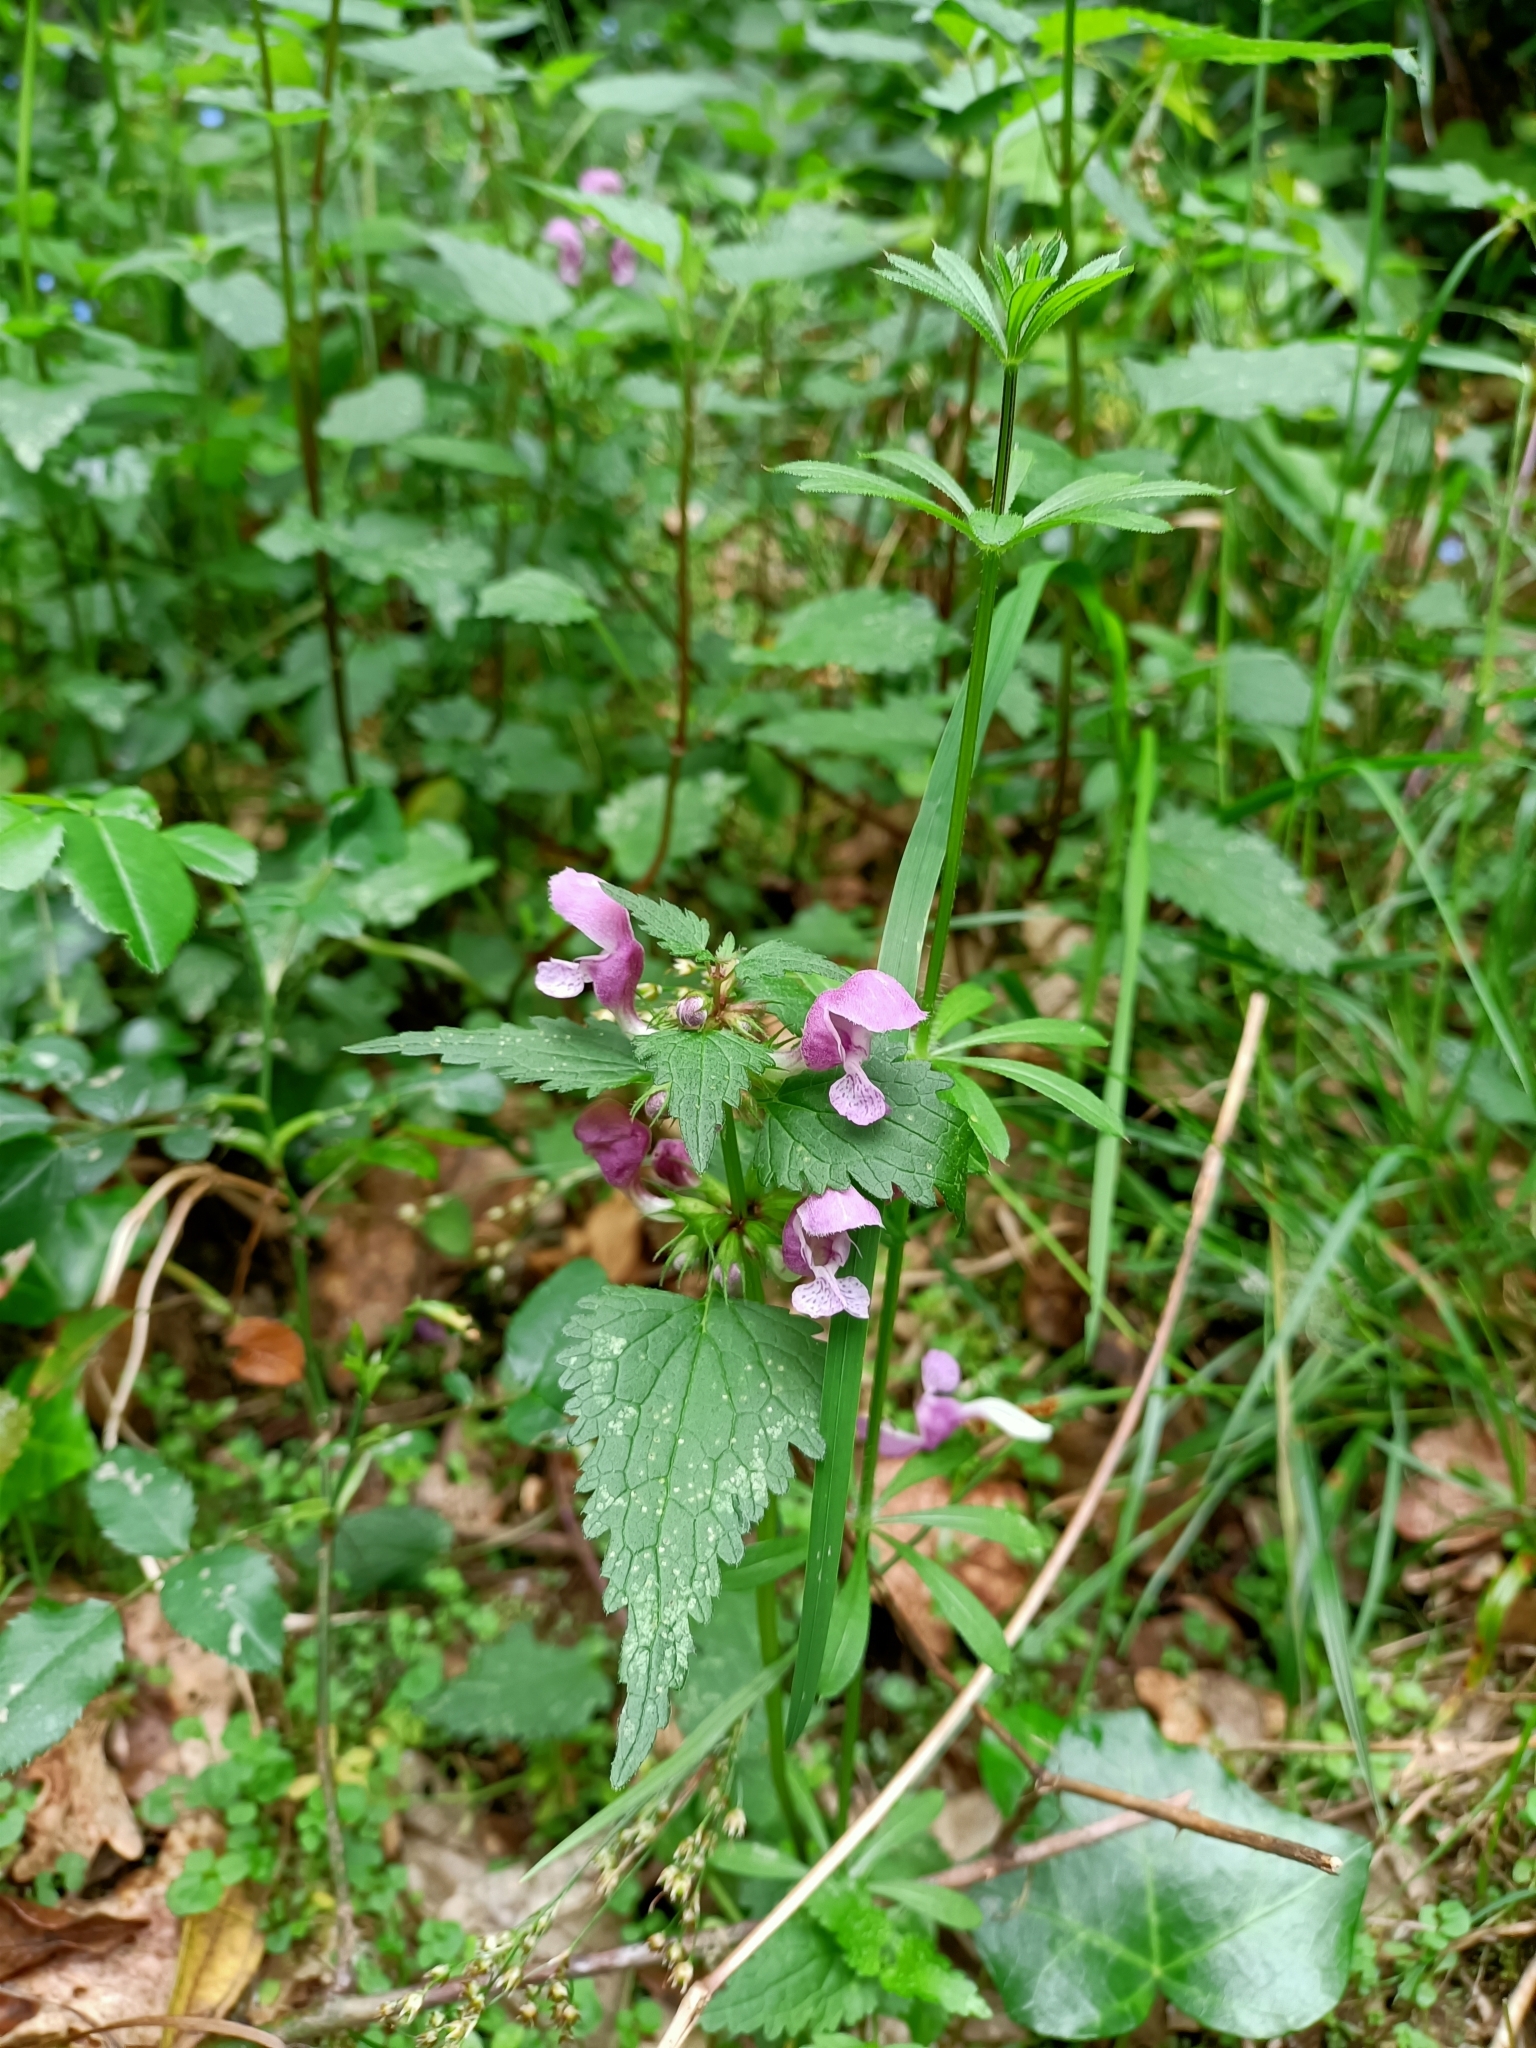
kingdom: Plantae
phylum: Tracheophyta
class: Magnoliopsida
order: Lamiales
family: Lamiaceae
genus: Lamium
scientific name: Lamium maculatum
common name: Spotted dead-nettle
